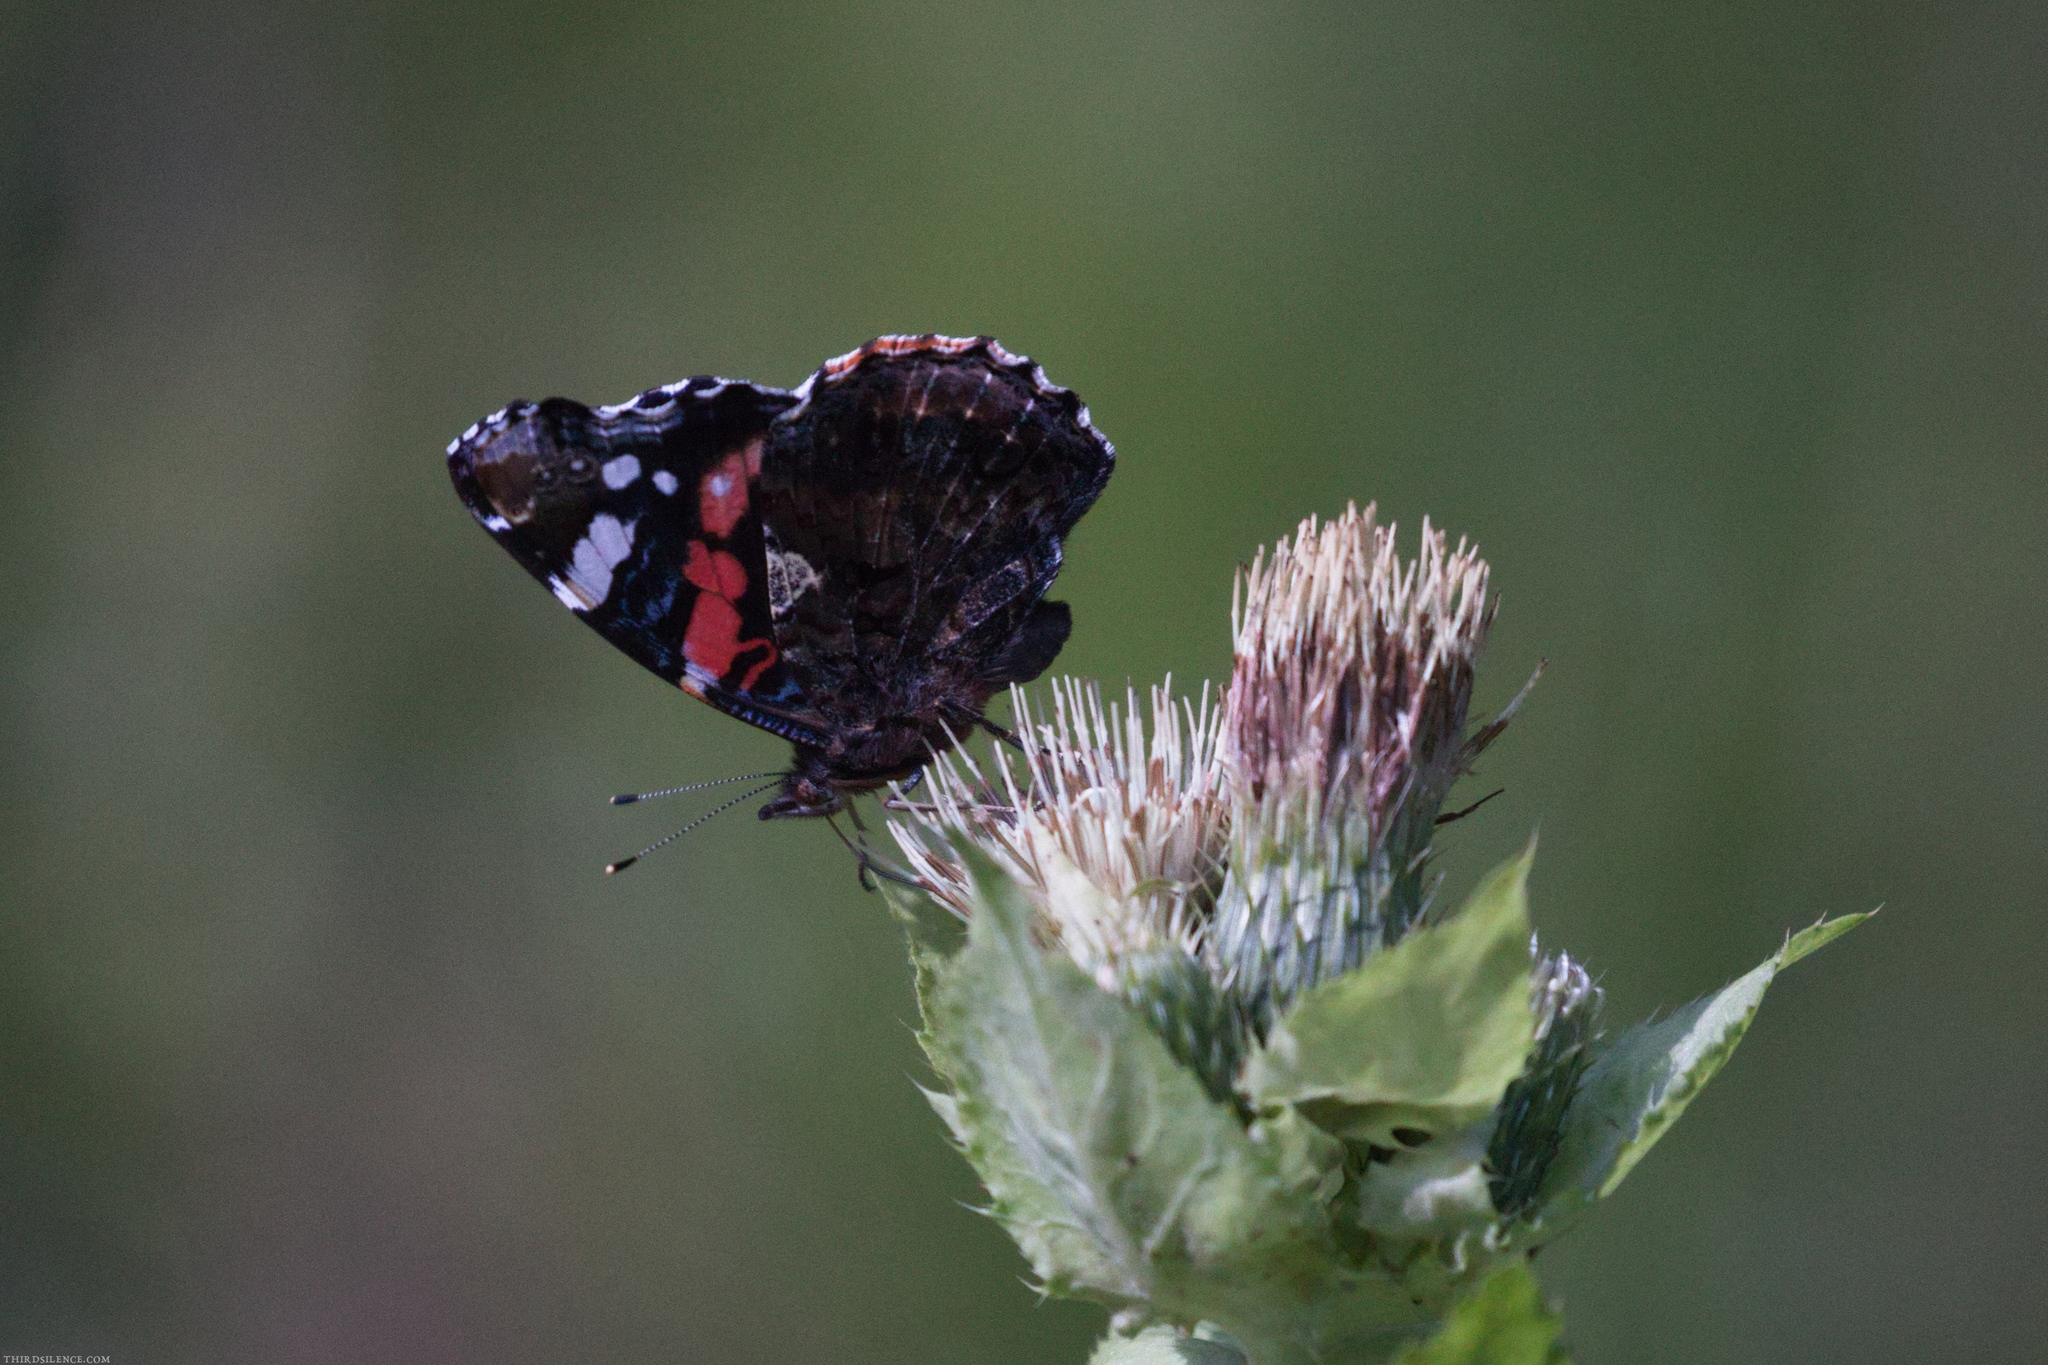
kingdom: Animalia
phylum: Arthropoda
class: Insecta
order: Lepidoptera
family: Nymphalidae
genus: Vanessa
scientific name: Vanessa atalanta
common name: Red admiral
